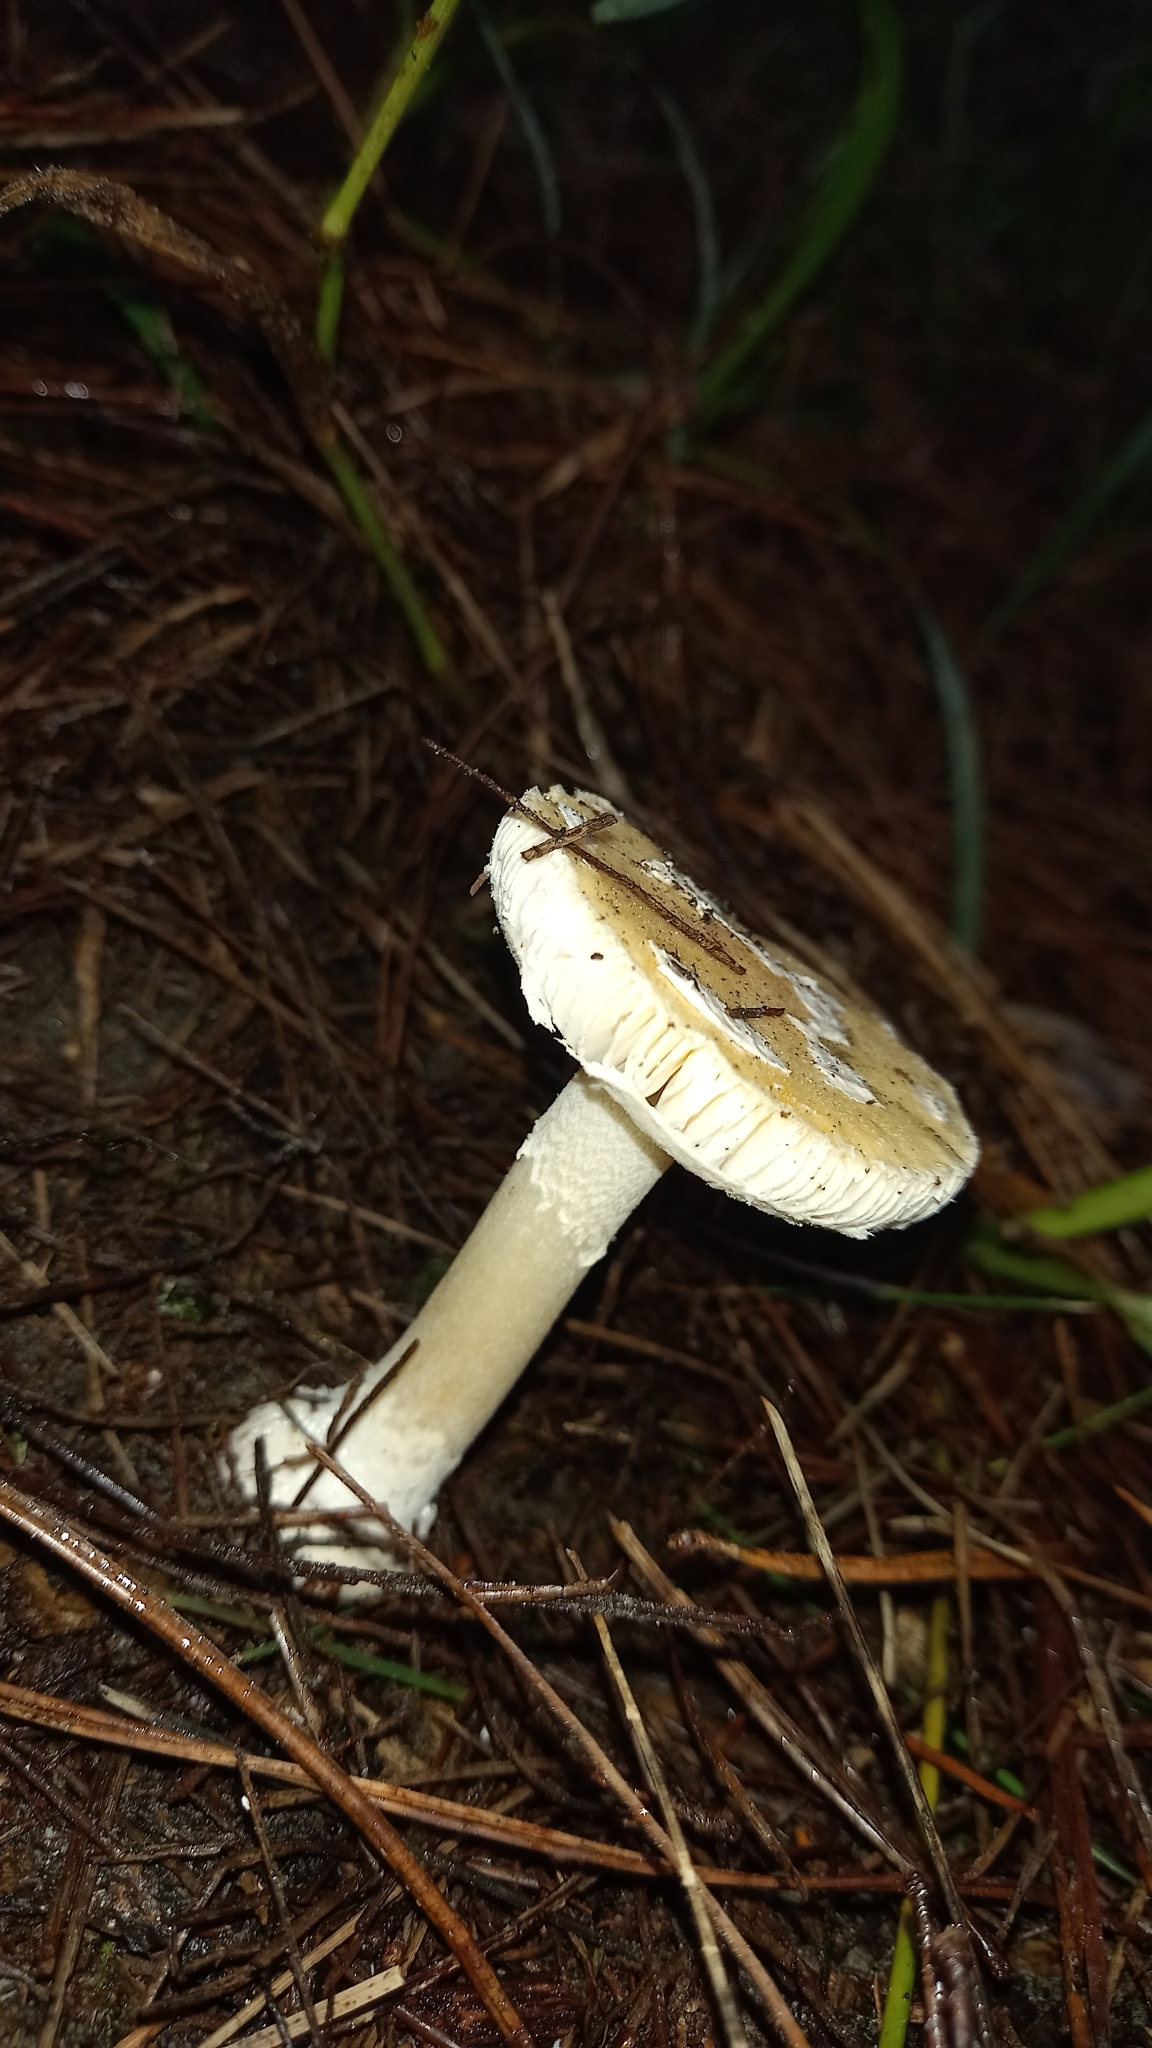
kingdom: Fungi
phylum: Basidiomycota
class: Agaricomycetes
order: Agaricales
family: Amanitaceae
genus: Amanita
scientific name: Amanita gemmata
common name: Jewelled amanita
